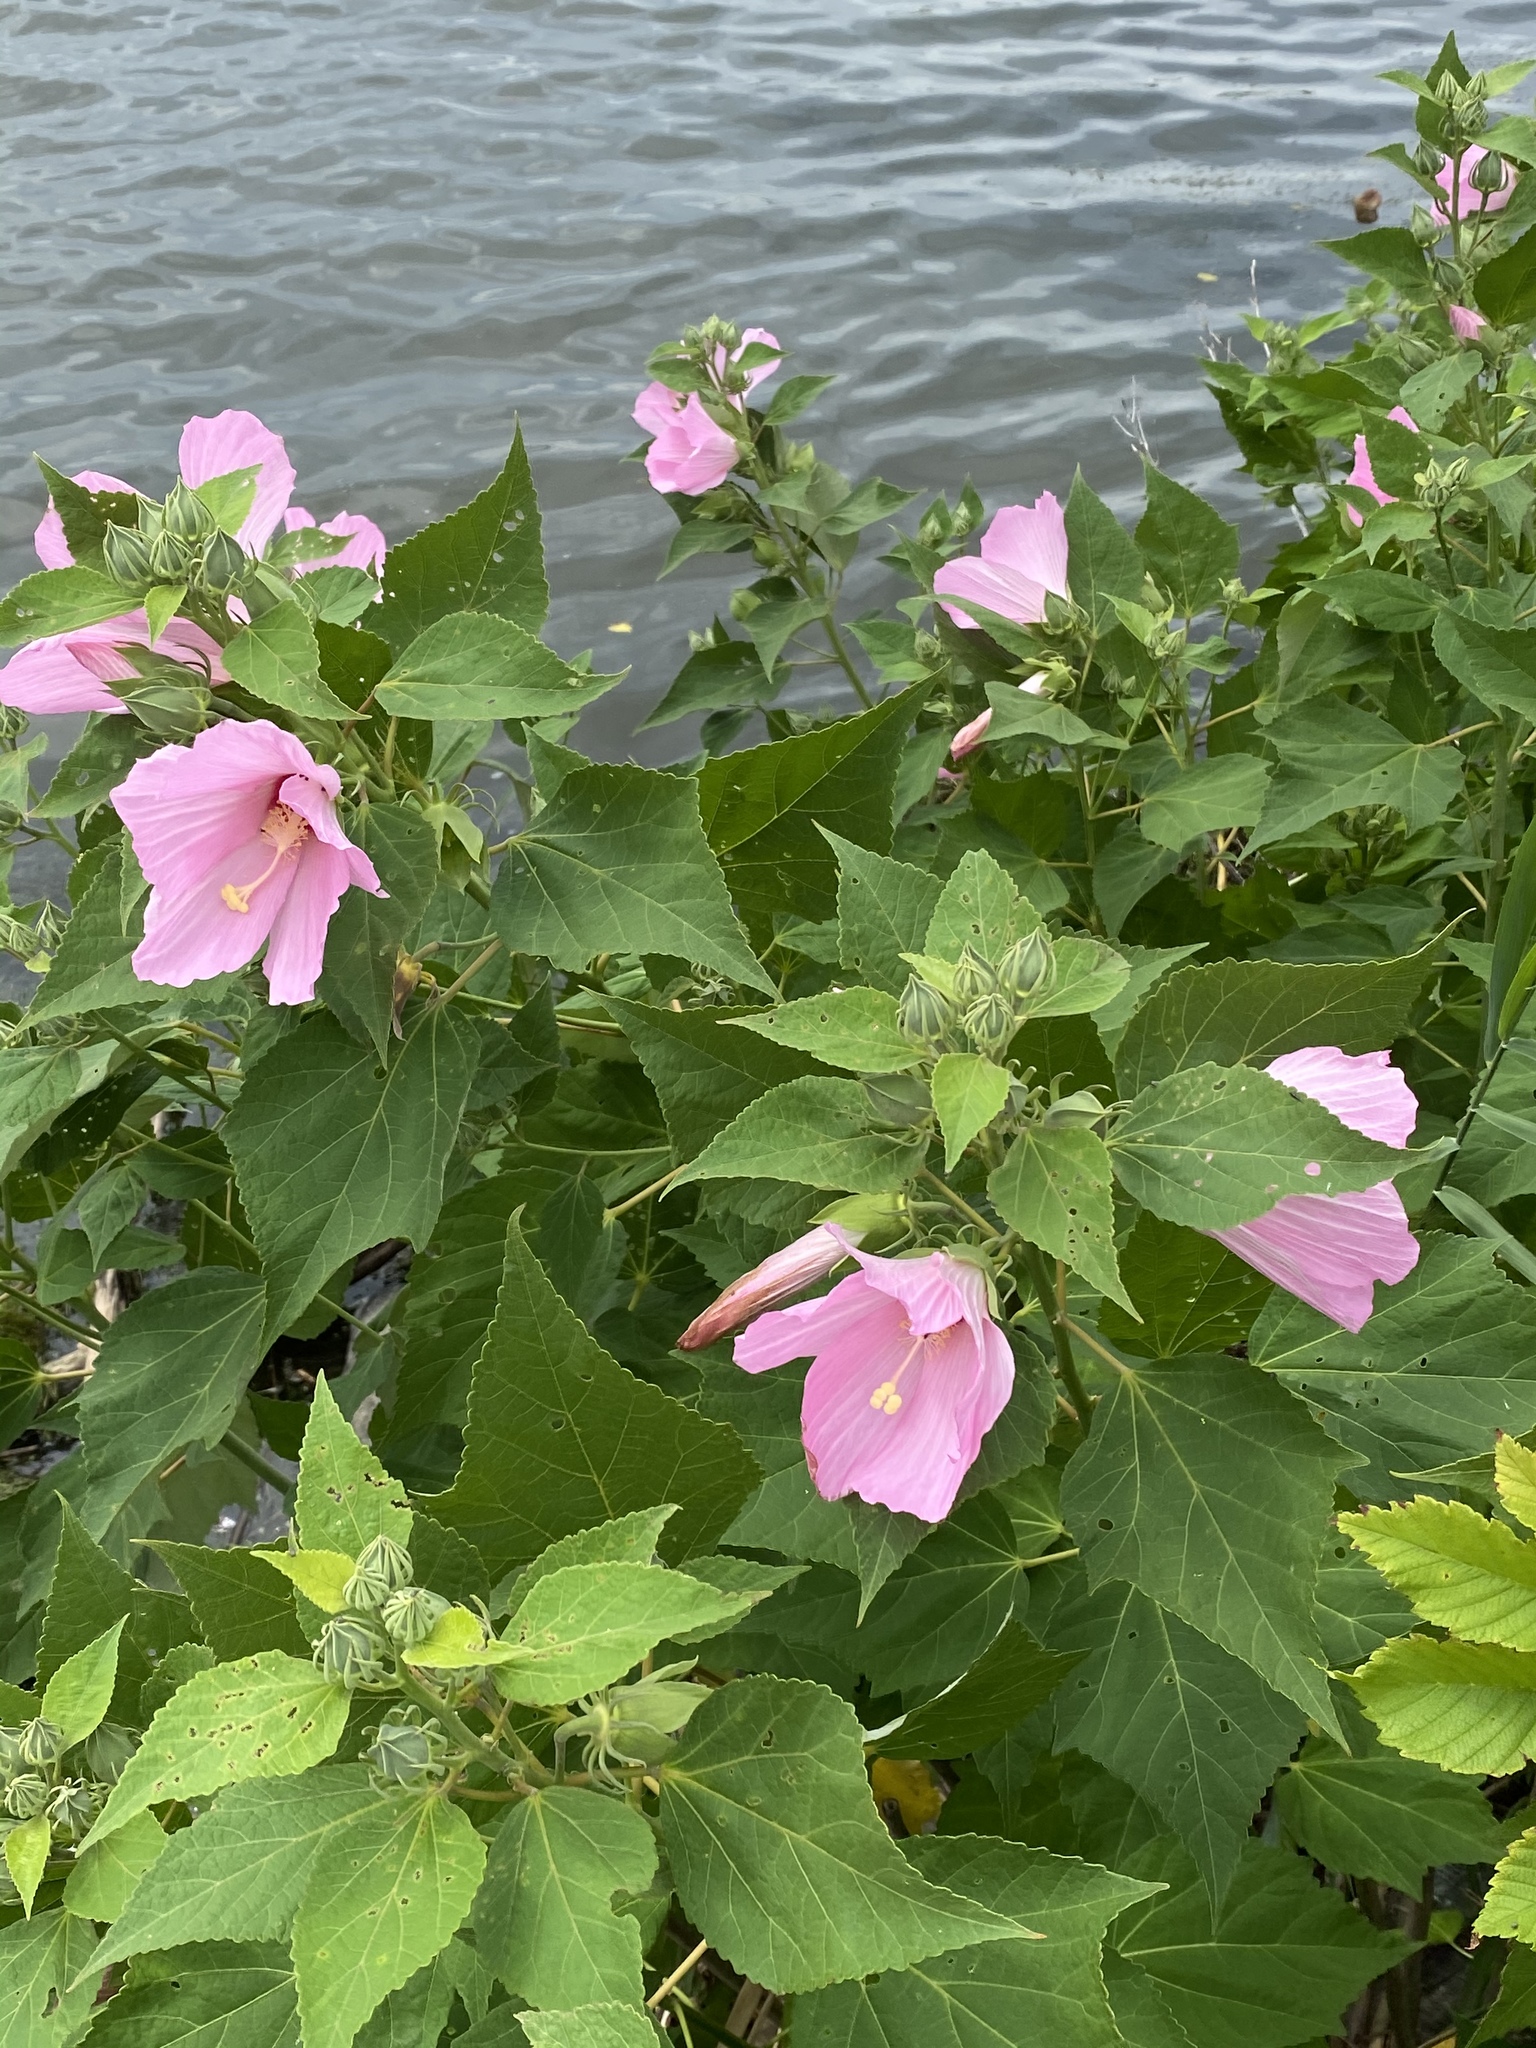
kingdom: Plantae
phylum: Tracheophyta
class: Magnoliopsida
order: Malvales
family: Malvaceae
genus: Hibiscus
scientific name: Hibiscus moscheutos
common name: Common rose-mallow
